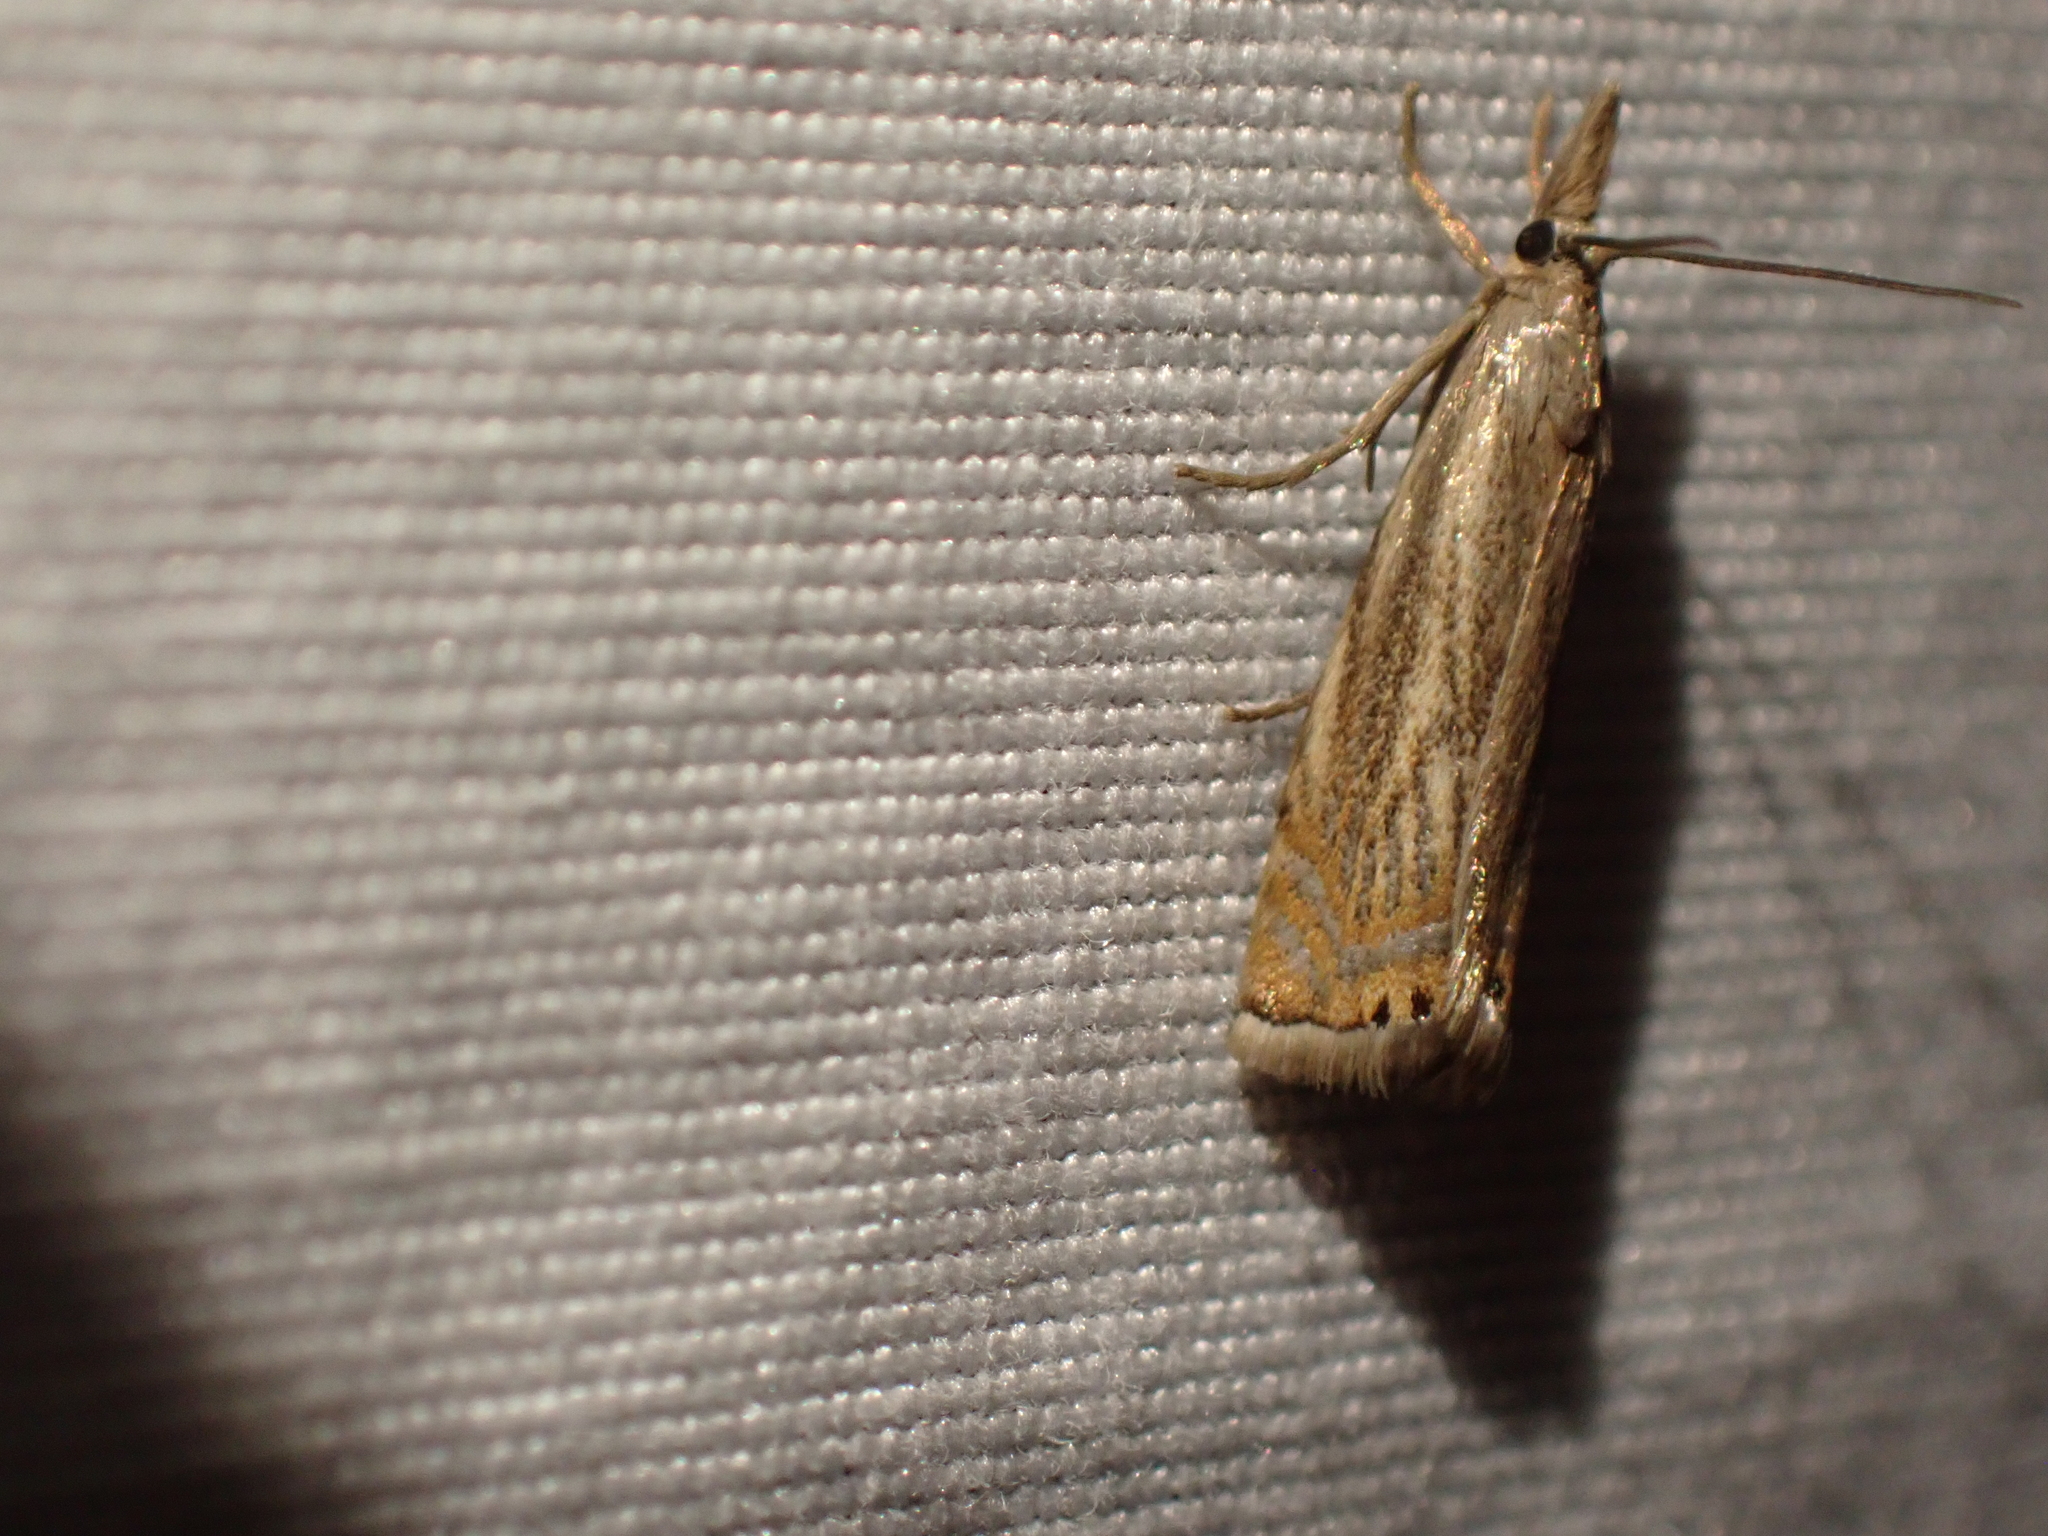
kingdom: Animalia
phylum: Arthropoda
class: Insecta
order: Lepidoptera
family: Crambidae
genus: Chrysoteuchia
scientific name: Chrysoteuchia topiarius
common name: Topiary grass-veneer
